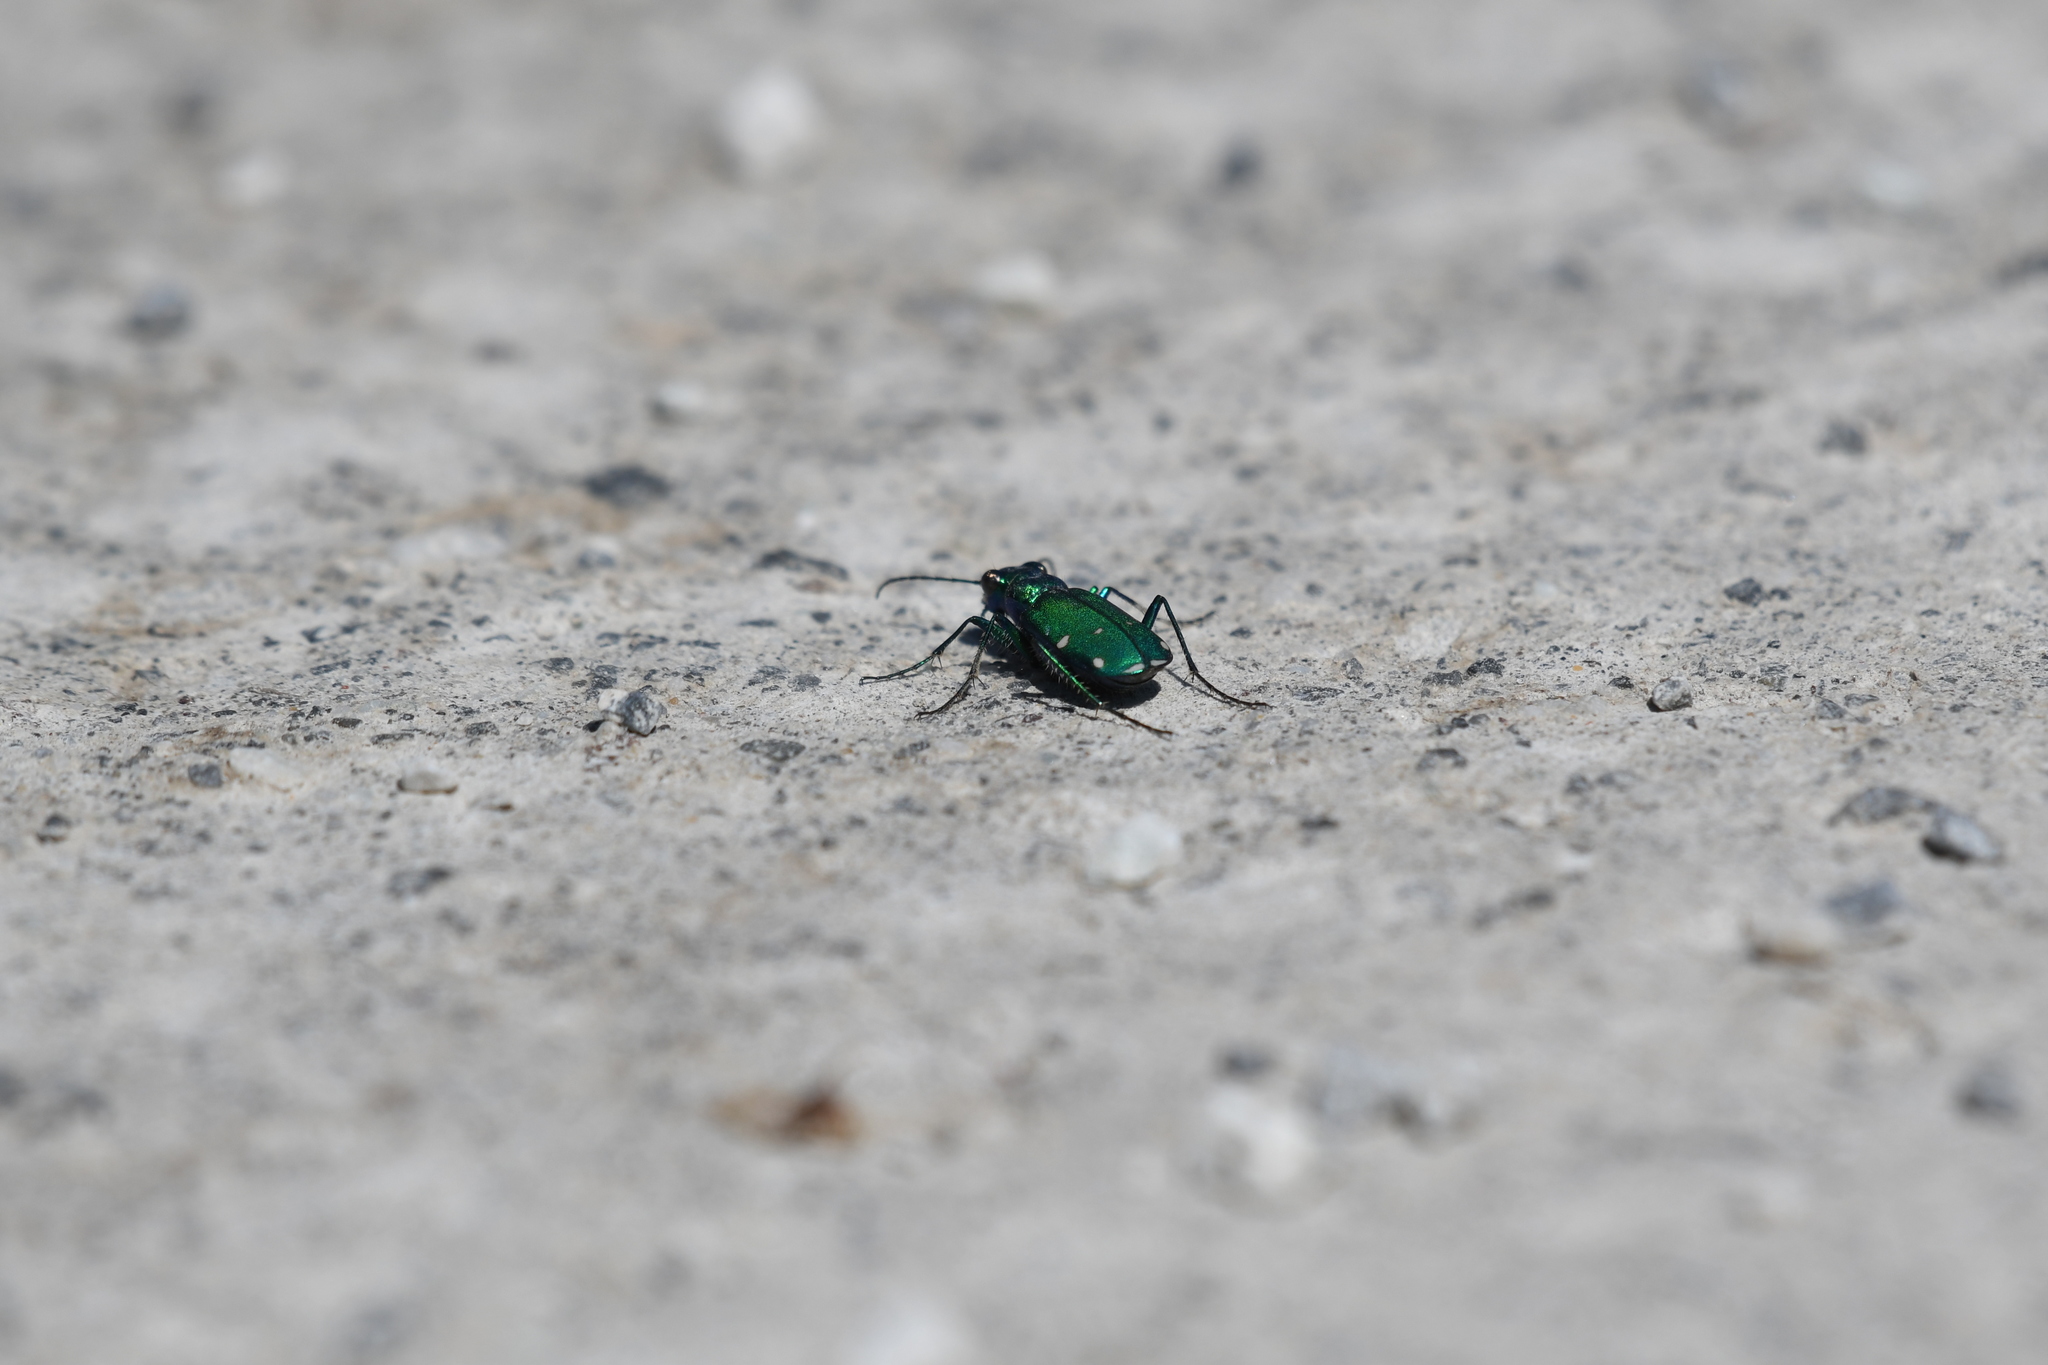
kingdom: Animalia
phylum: Arthropoda
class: Insecta
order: Coleoptera
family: Carabidae
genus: Cicindela
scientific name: Cicindela sexguttata
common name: Six-spotted tiger beetle
